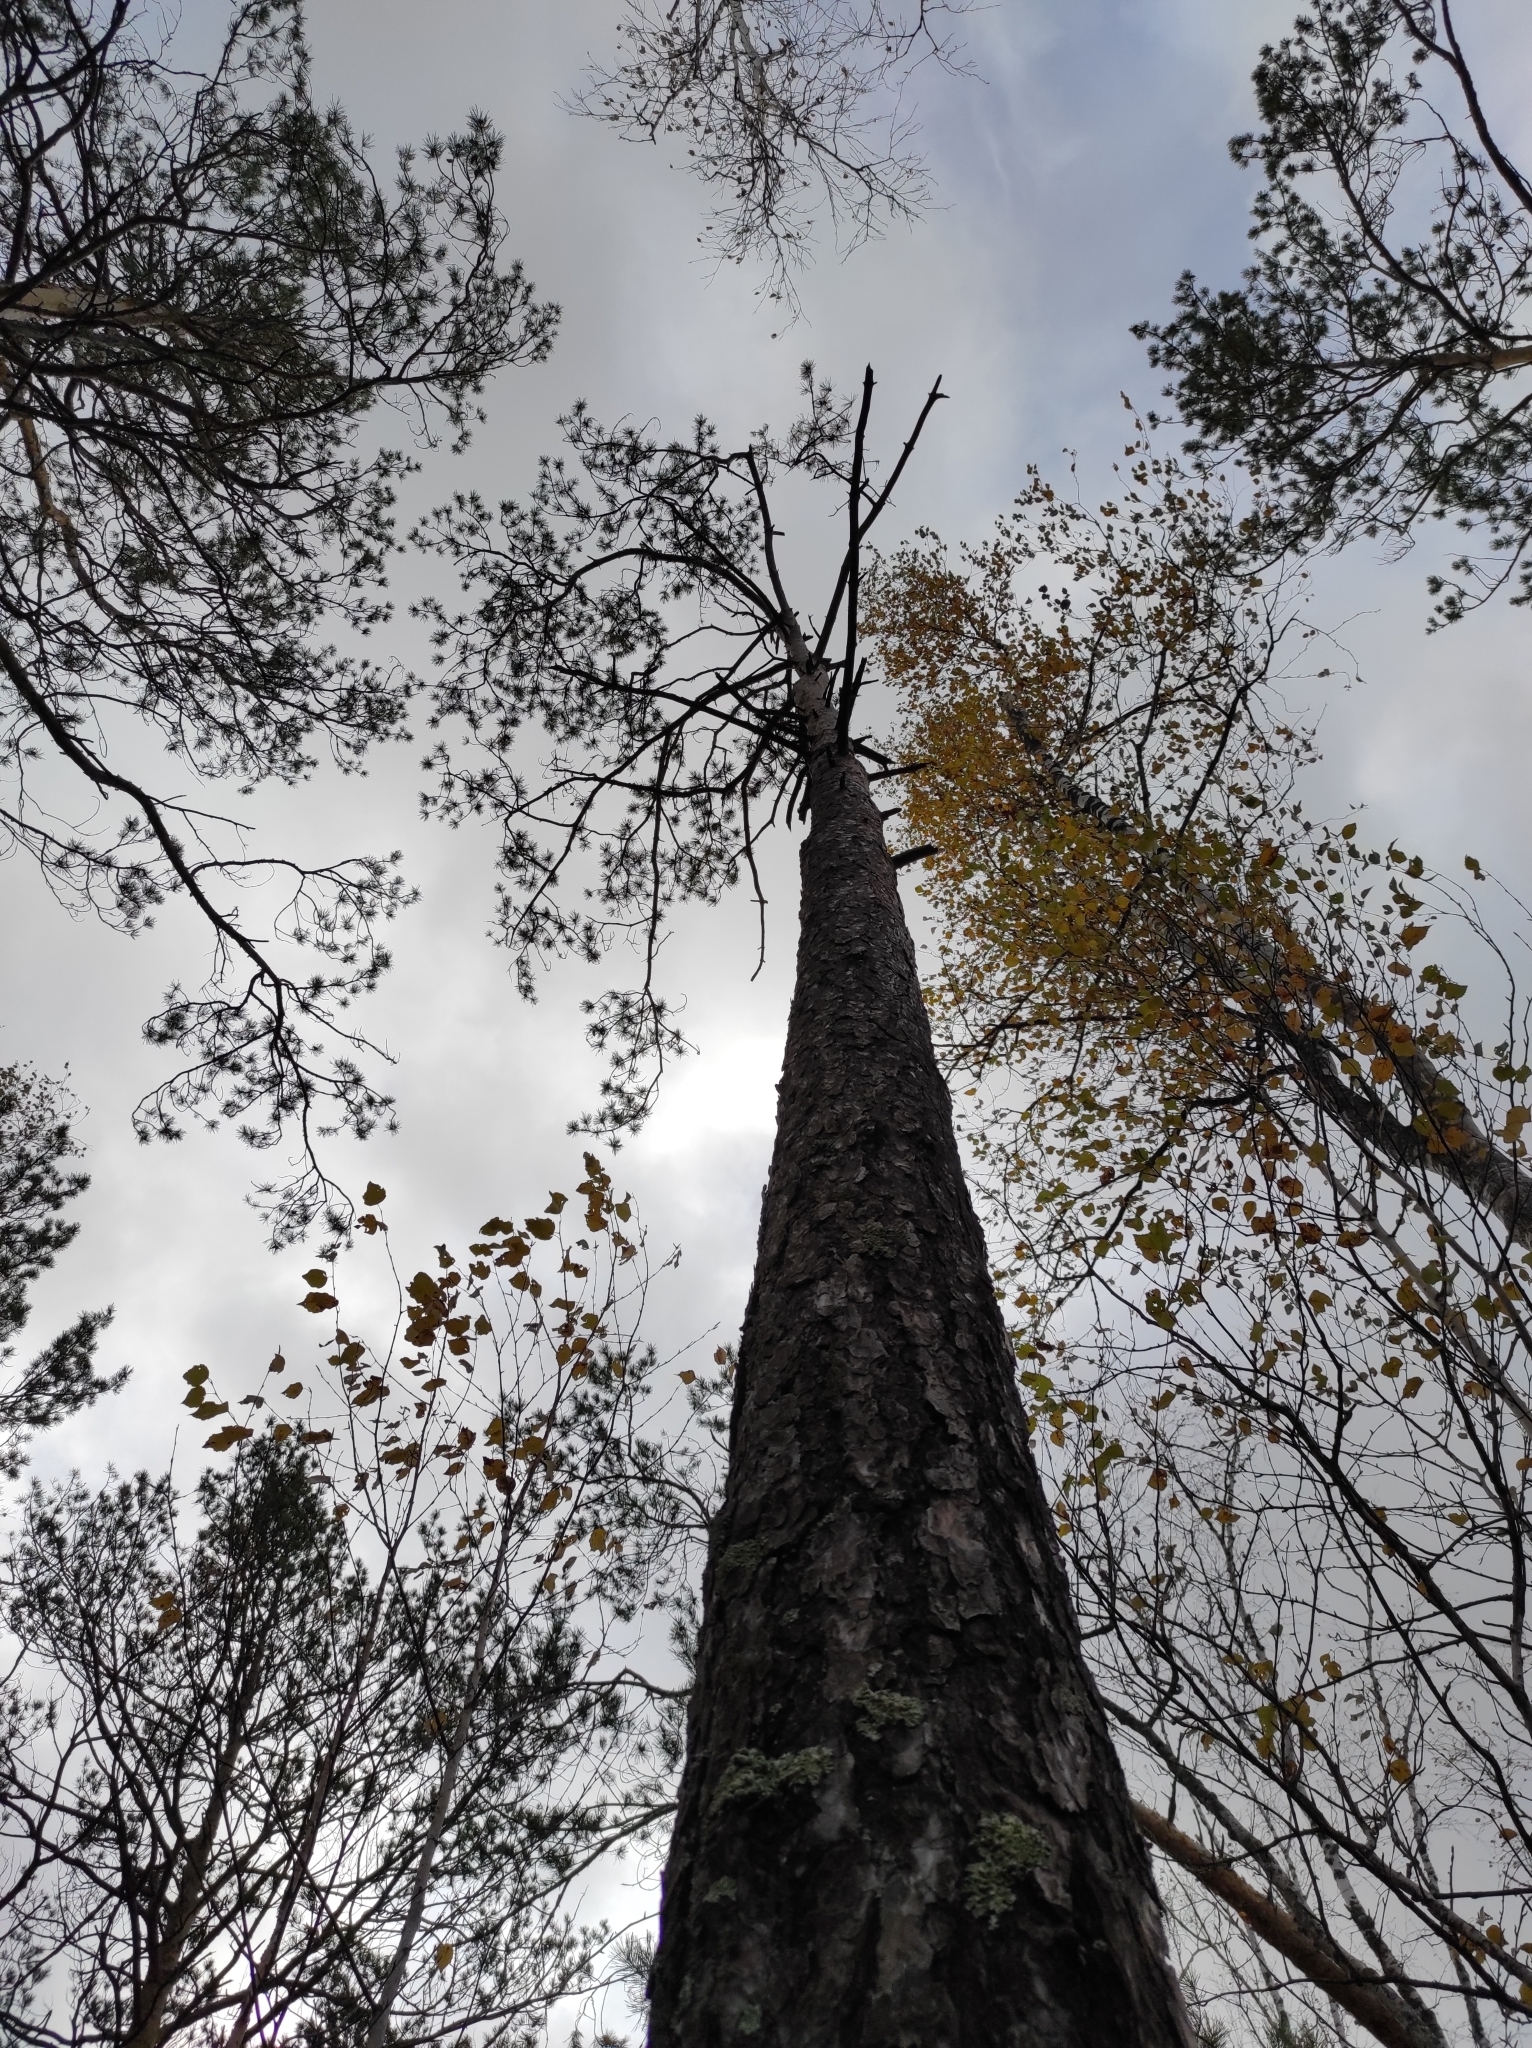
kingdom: Plantae
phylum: Tracheophyta
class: Pinopsida
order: Pinales
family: Pinaceae
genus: Pinus
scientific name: Pinus sylvestris
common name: Scots pine
